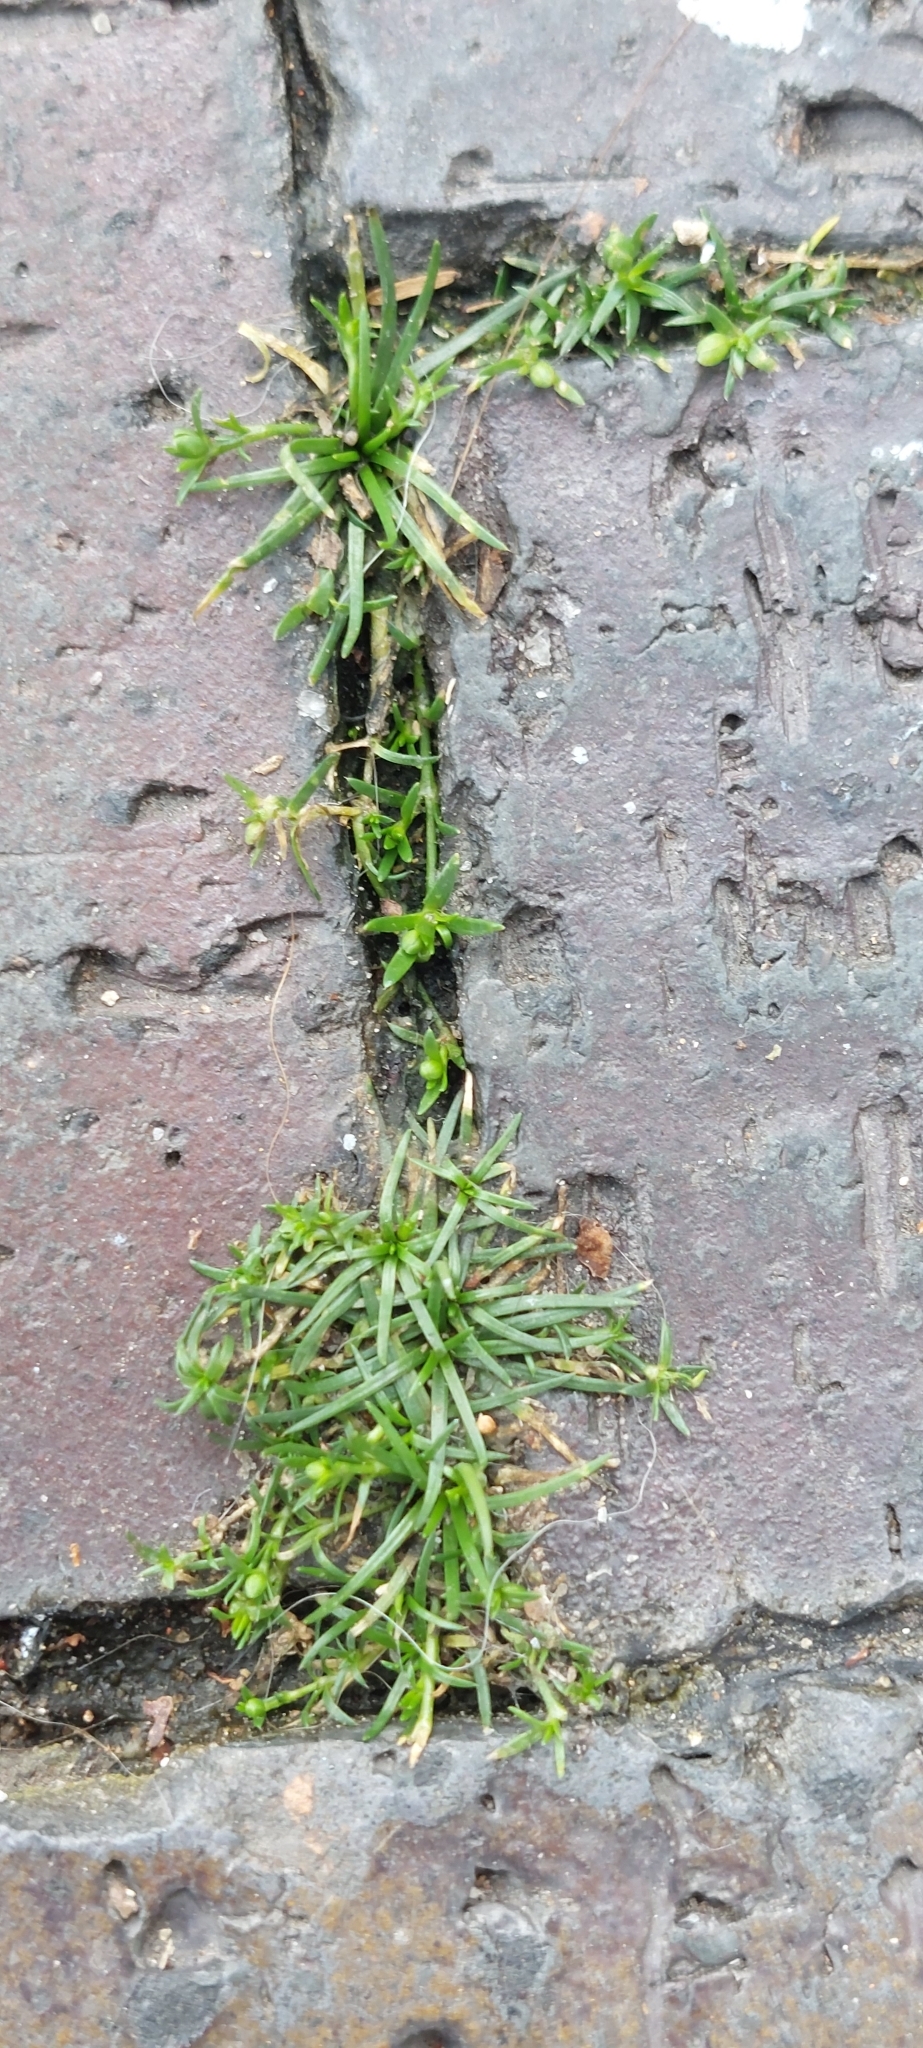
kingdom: Plantae
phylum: Tracheophyta
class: Magnoliopsida
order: Caryophyllales
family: Caryophyllaceae
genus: Sagina
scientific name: Sagina procumbens
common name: Procumbent pearlwort
